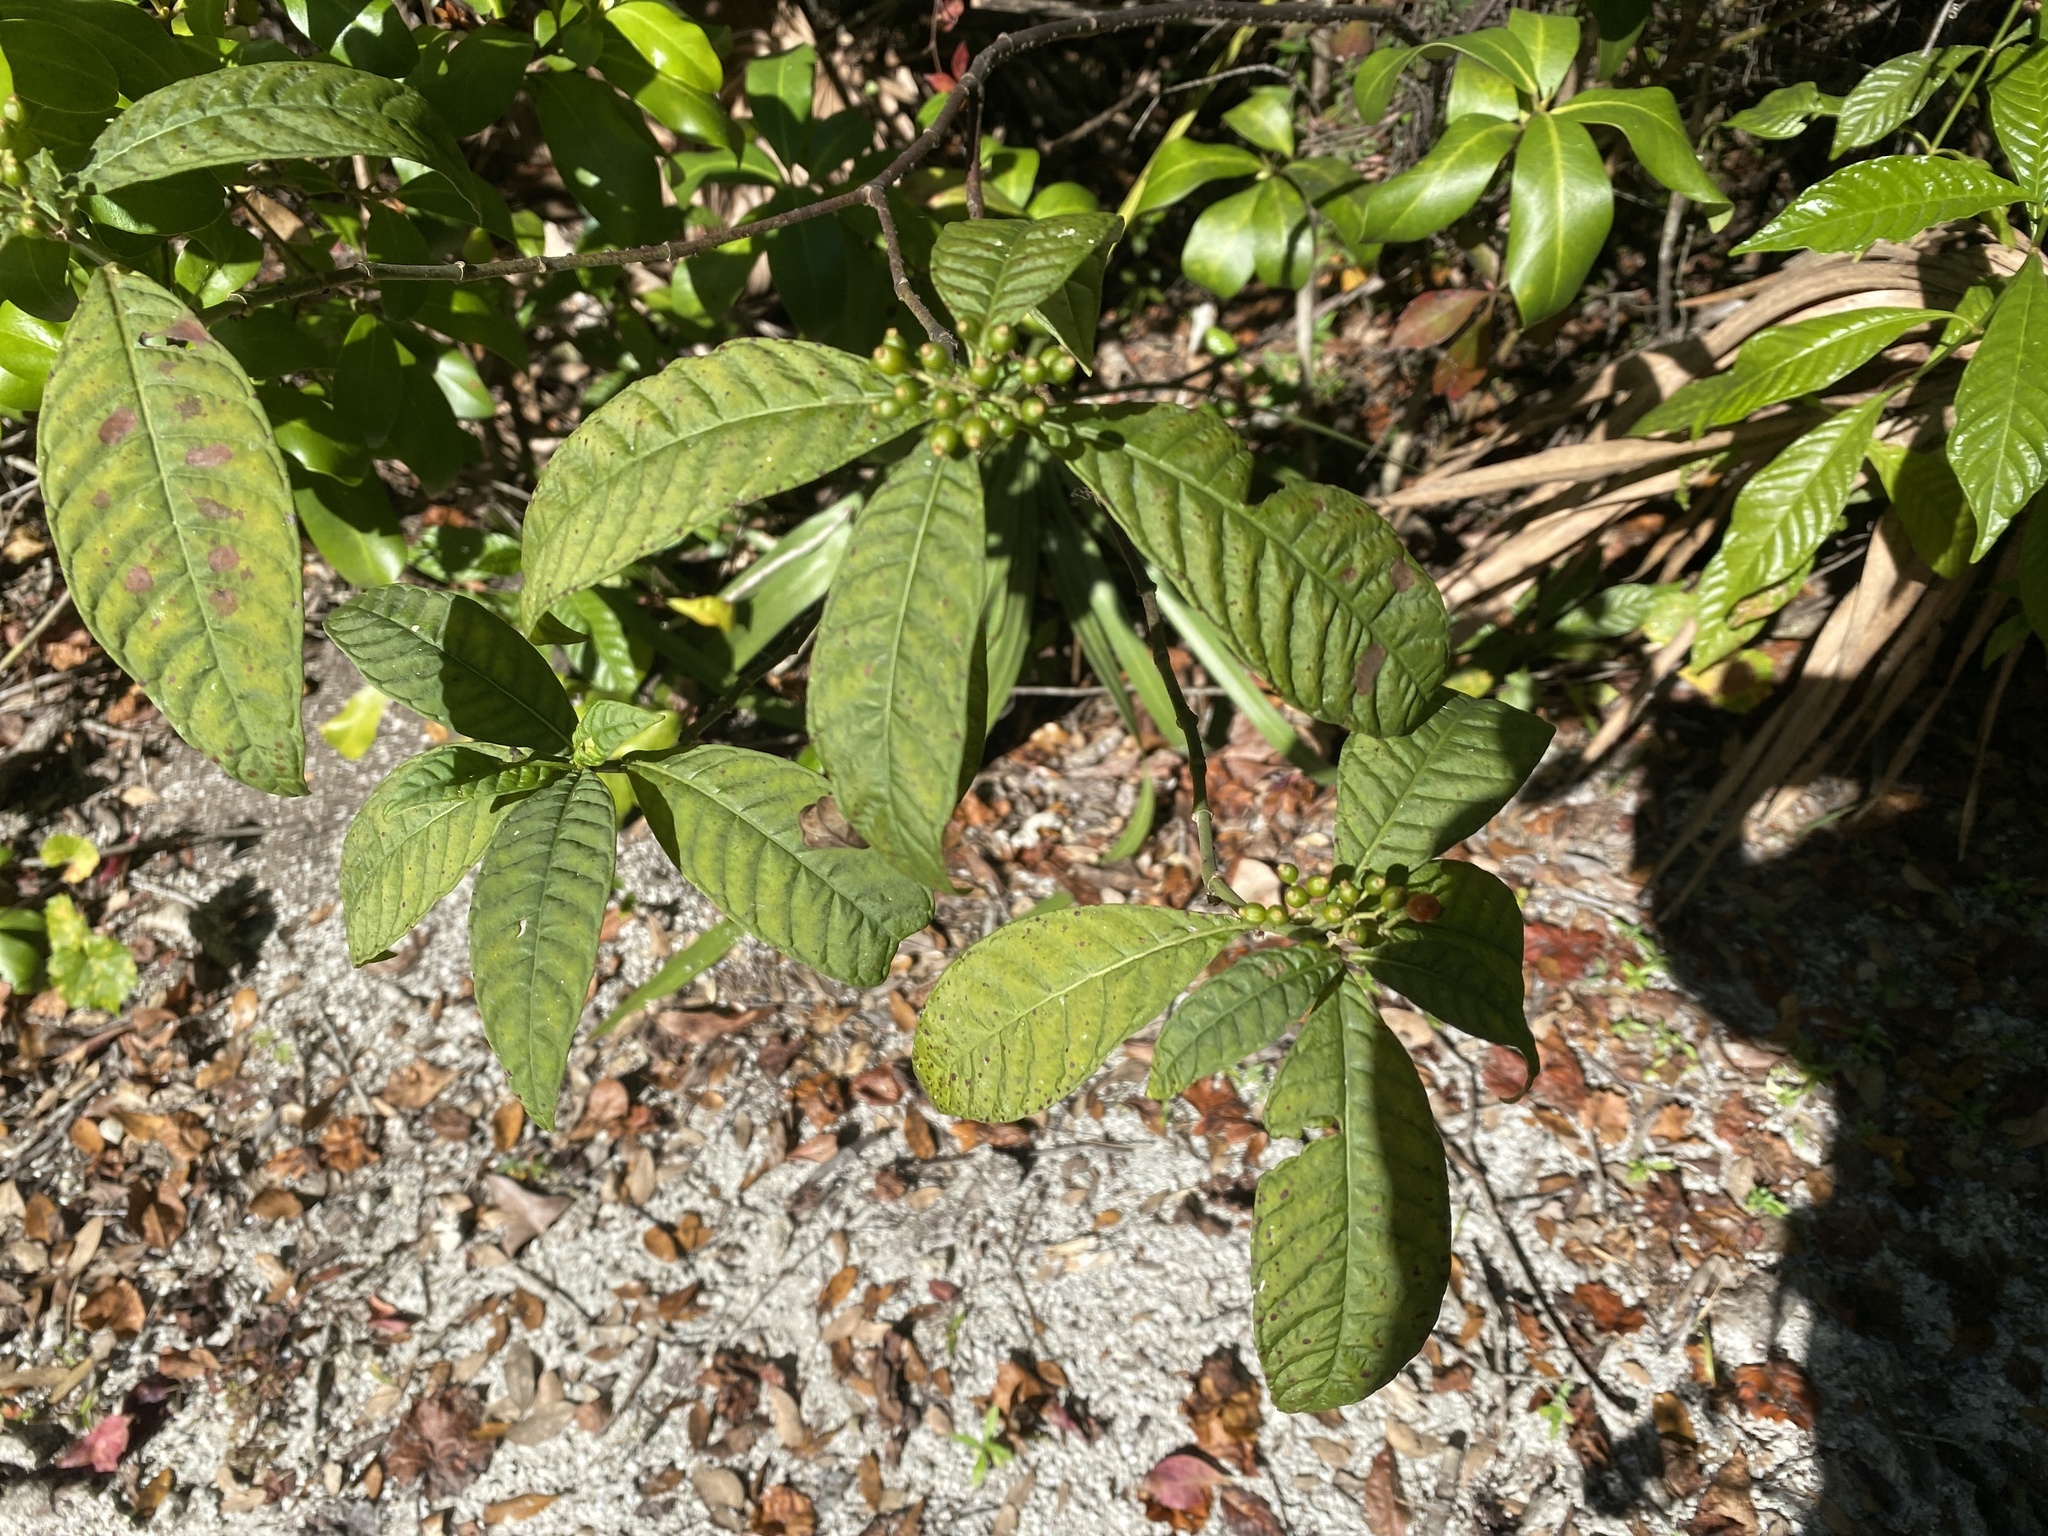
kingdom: Plantae
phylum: Tracheophyta
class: Magnoliopsida
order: Gentianales
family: Rubiaceae
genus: Psychotria
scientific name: Psychotria tenuifolia
